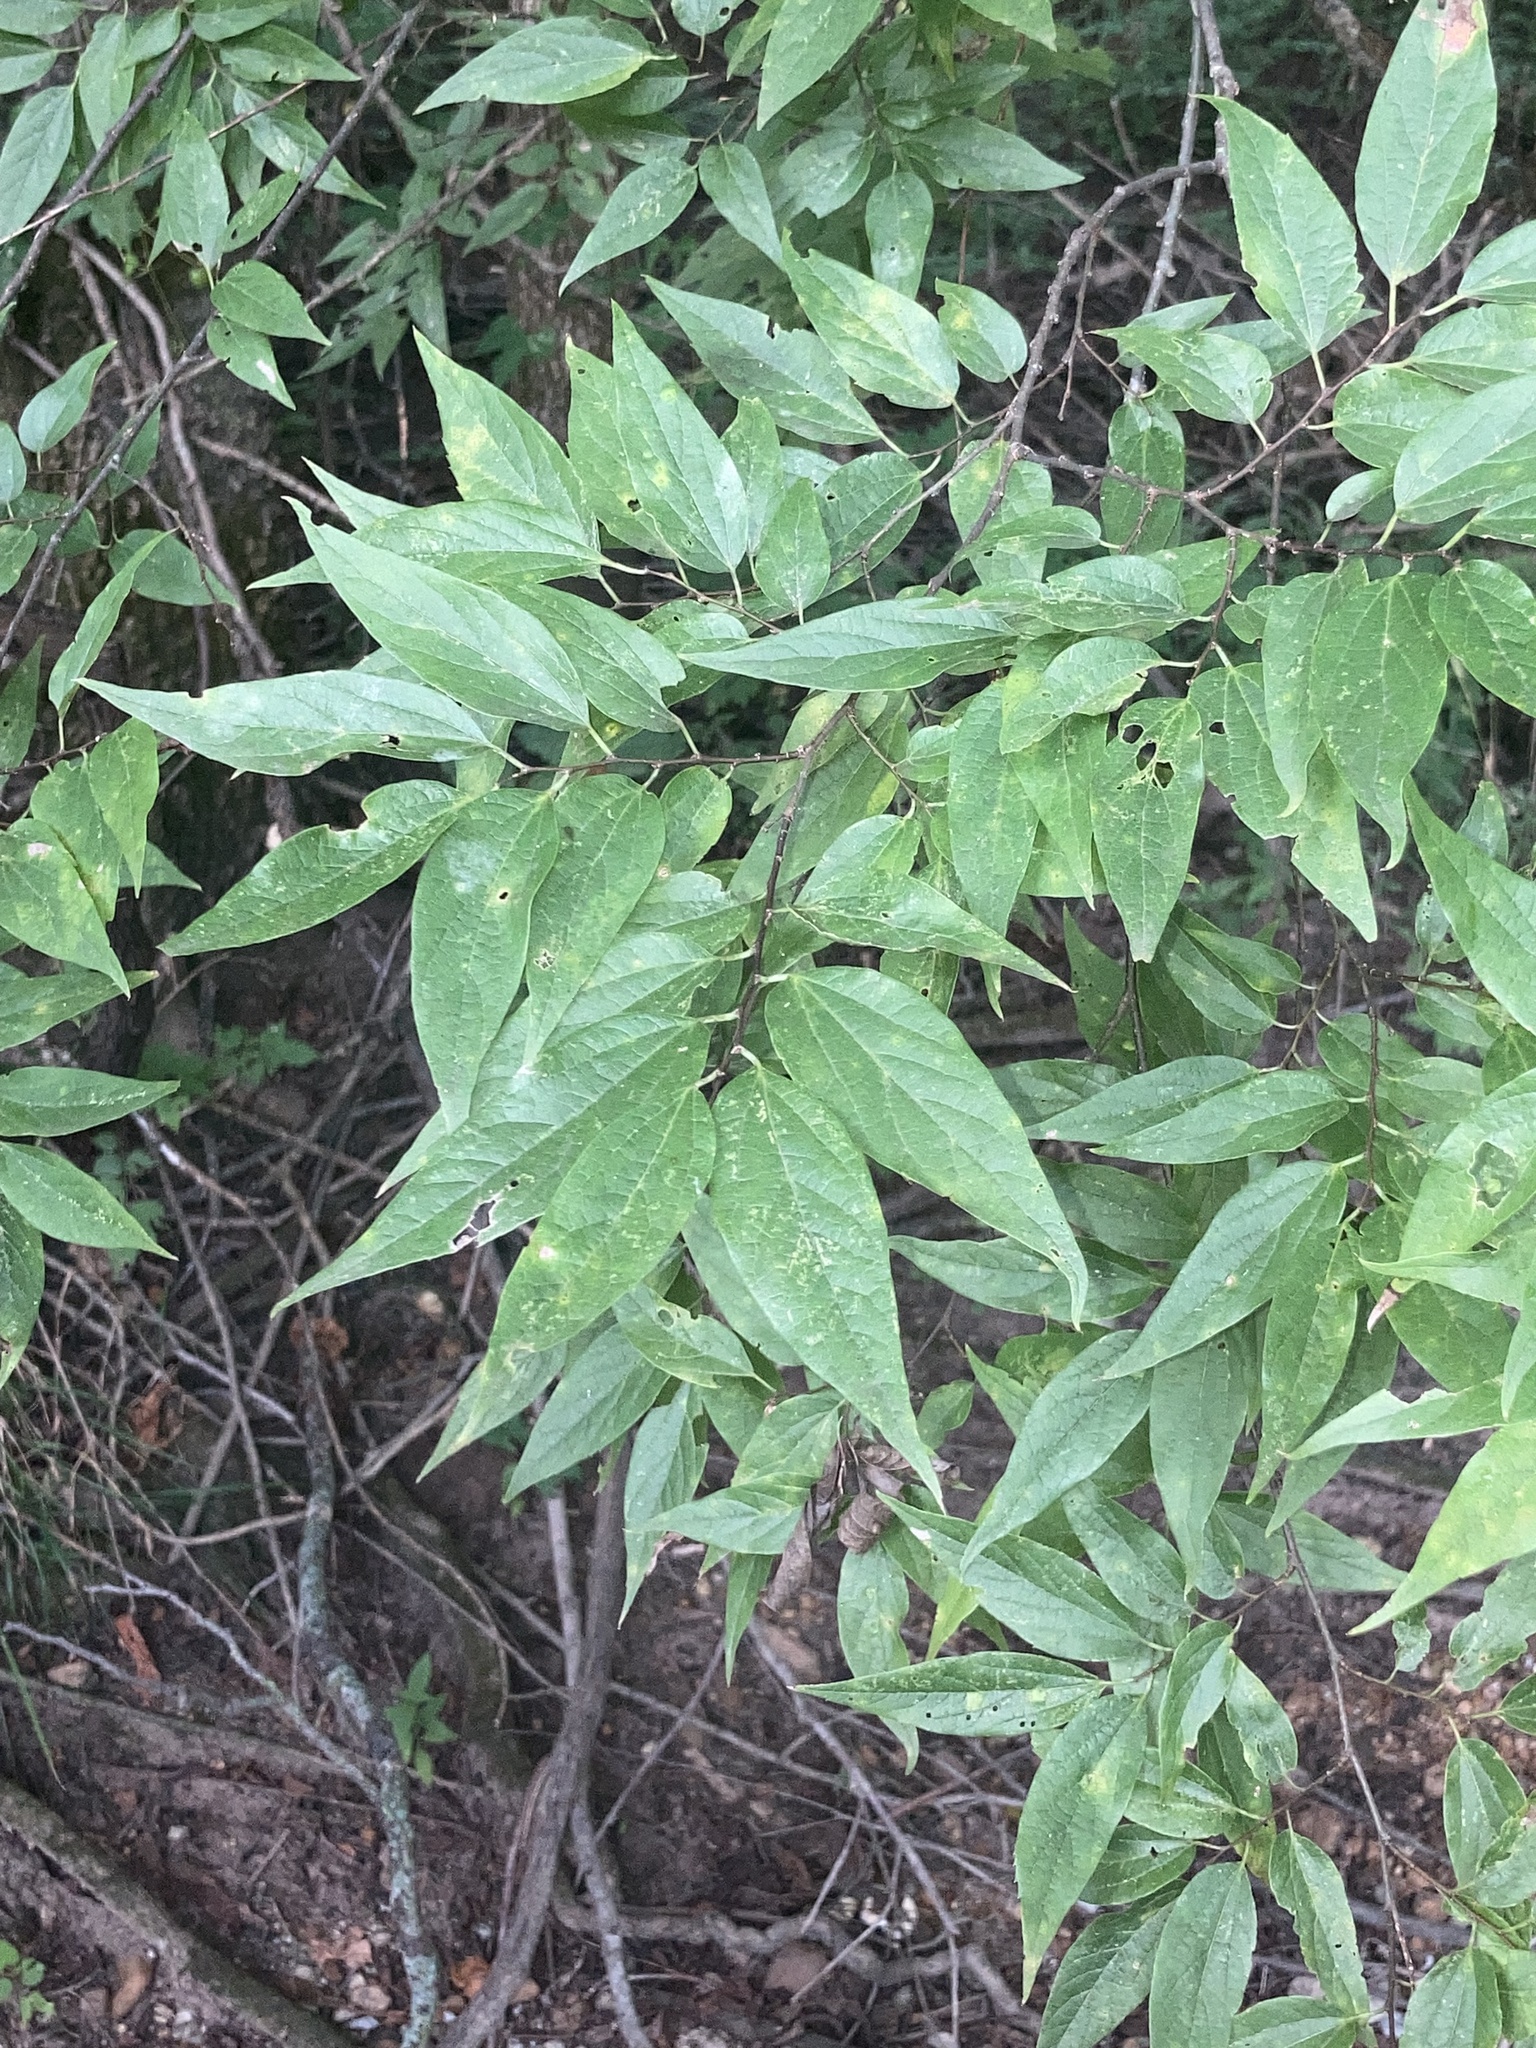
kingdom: Plantae
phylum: Tracheophyta
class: Magnoliopsida
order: Rosales
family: Cannabaceae
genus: Celtis
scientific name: Celtis laevigata
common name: Sugarberry
